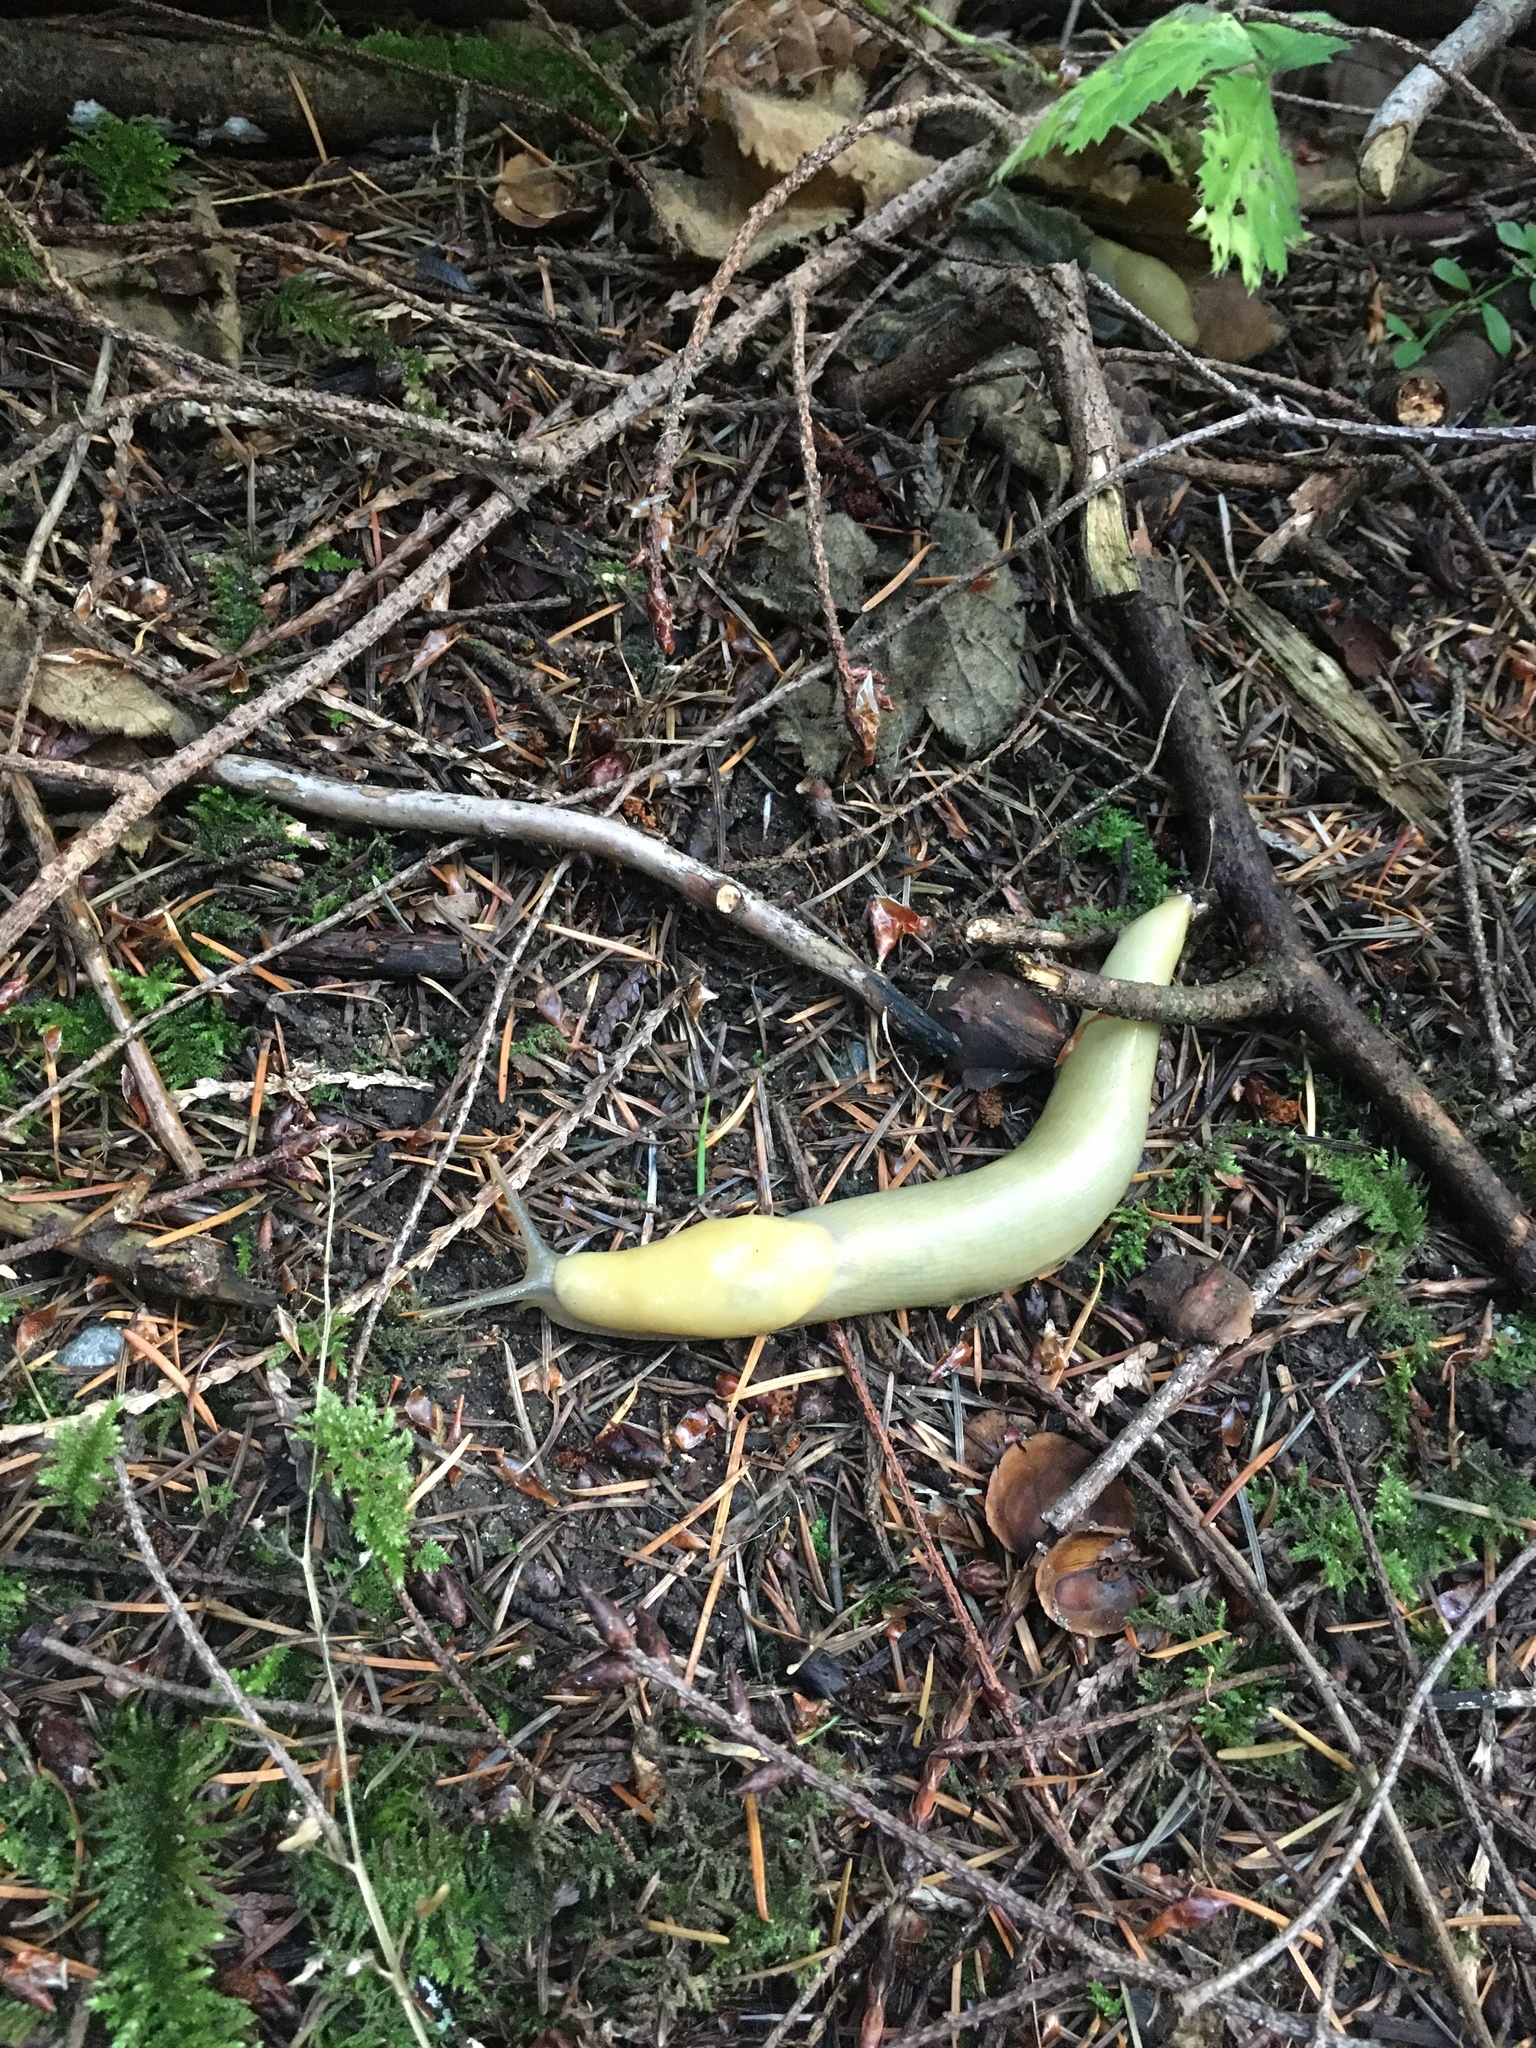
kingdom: Animalia
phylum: Mollusca
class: Gastropoda
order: Stylommatophora
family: Ariolimacidae
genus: Ariolimax
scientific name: Ariolimax columbianus
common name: Pacific banana slug
